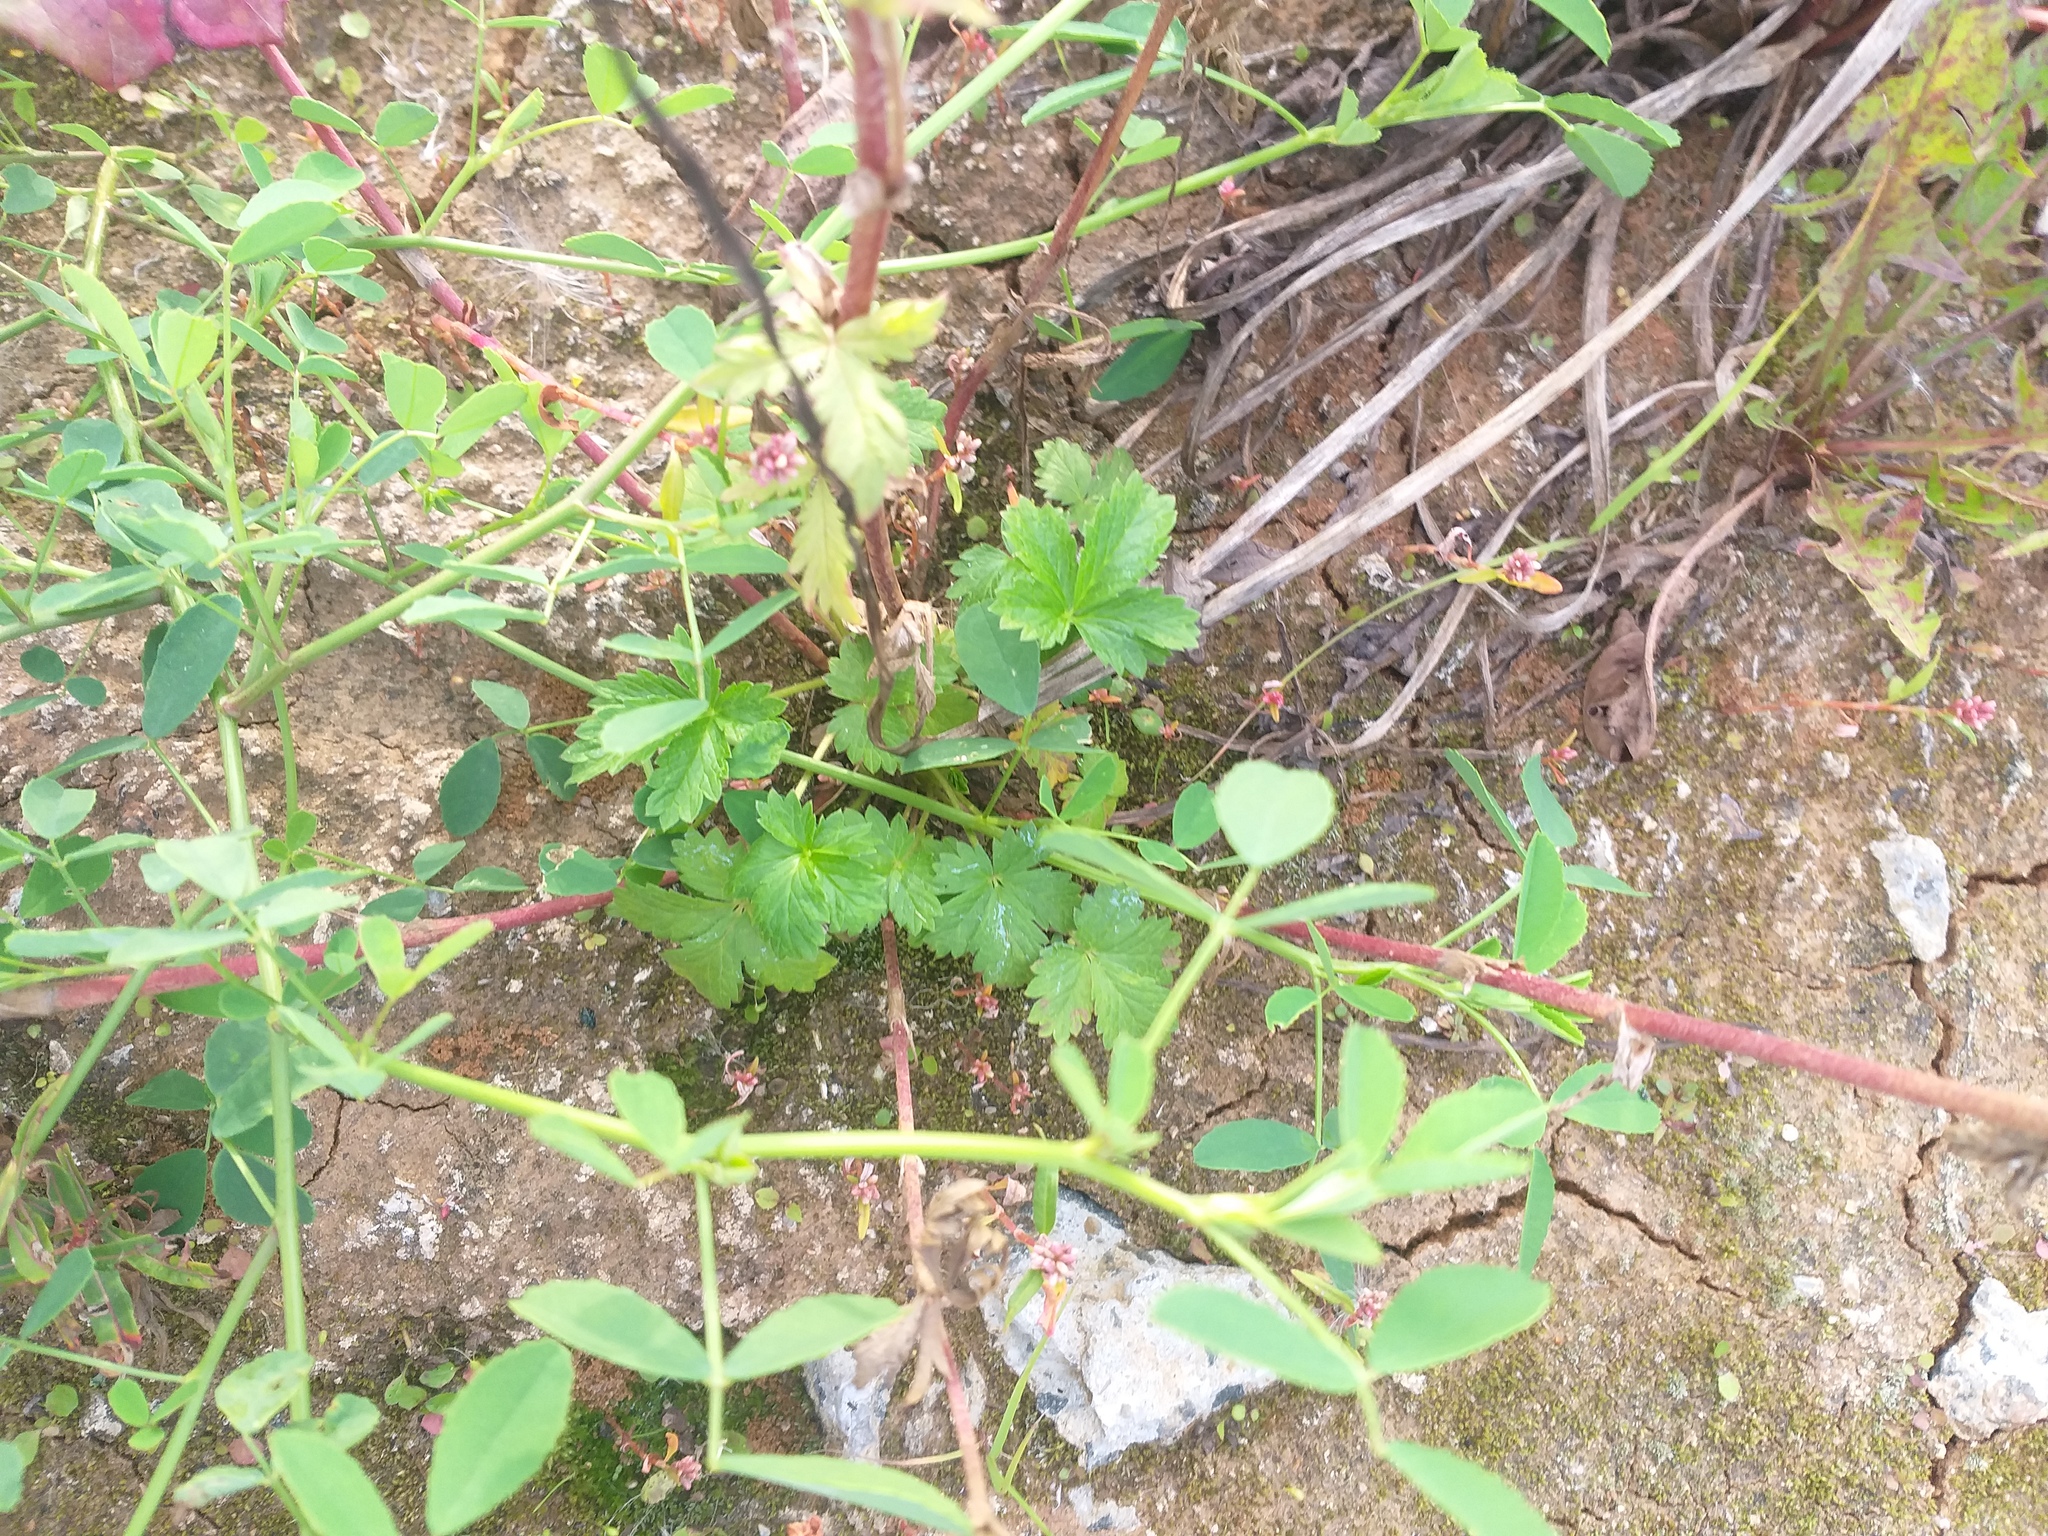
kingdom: Plantae
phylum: Tracheophyta
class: Magnoliopsida
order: Rosales
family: Rosaceae
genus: Potentilla
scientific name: Potentilla intermedia
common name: Downy cinquefoil
